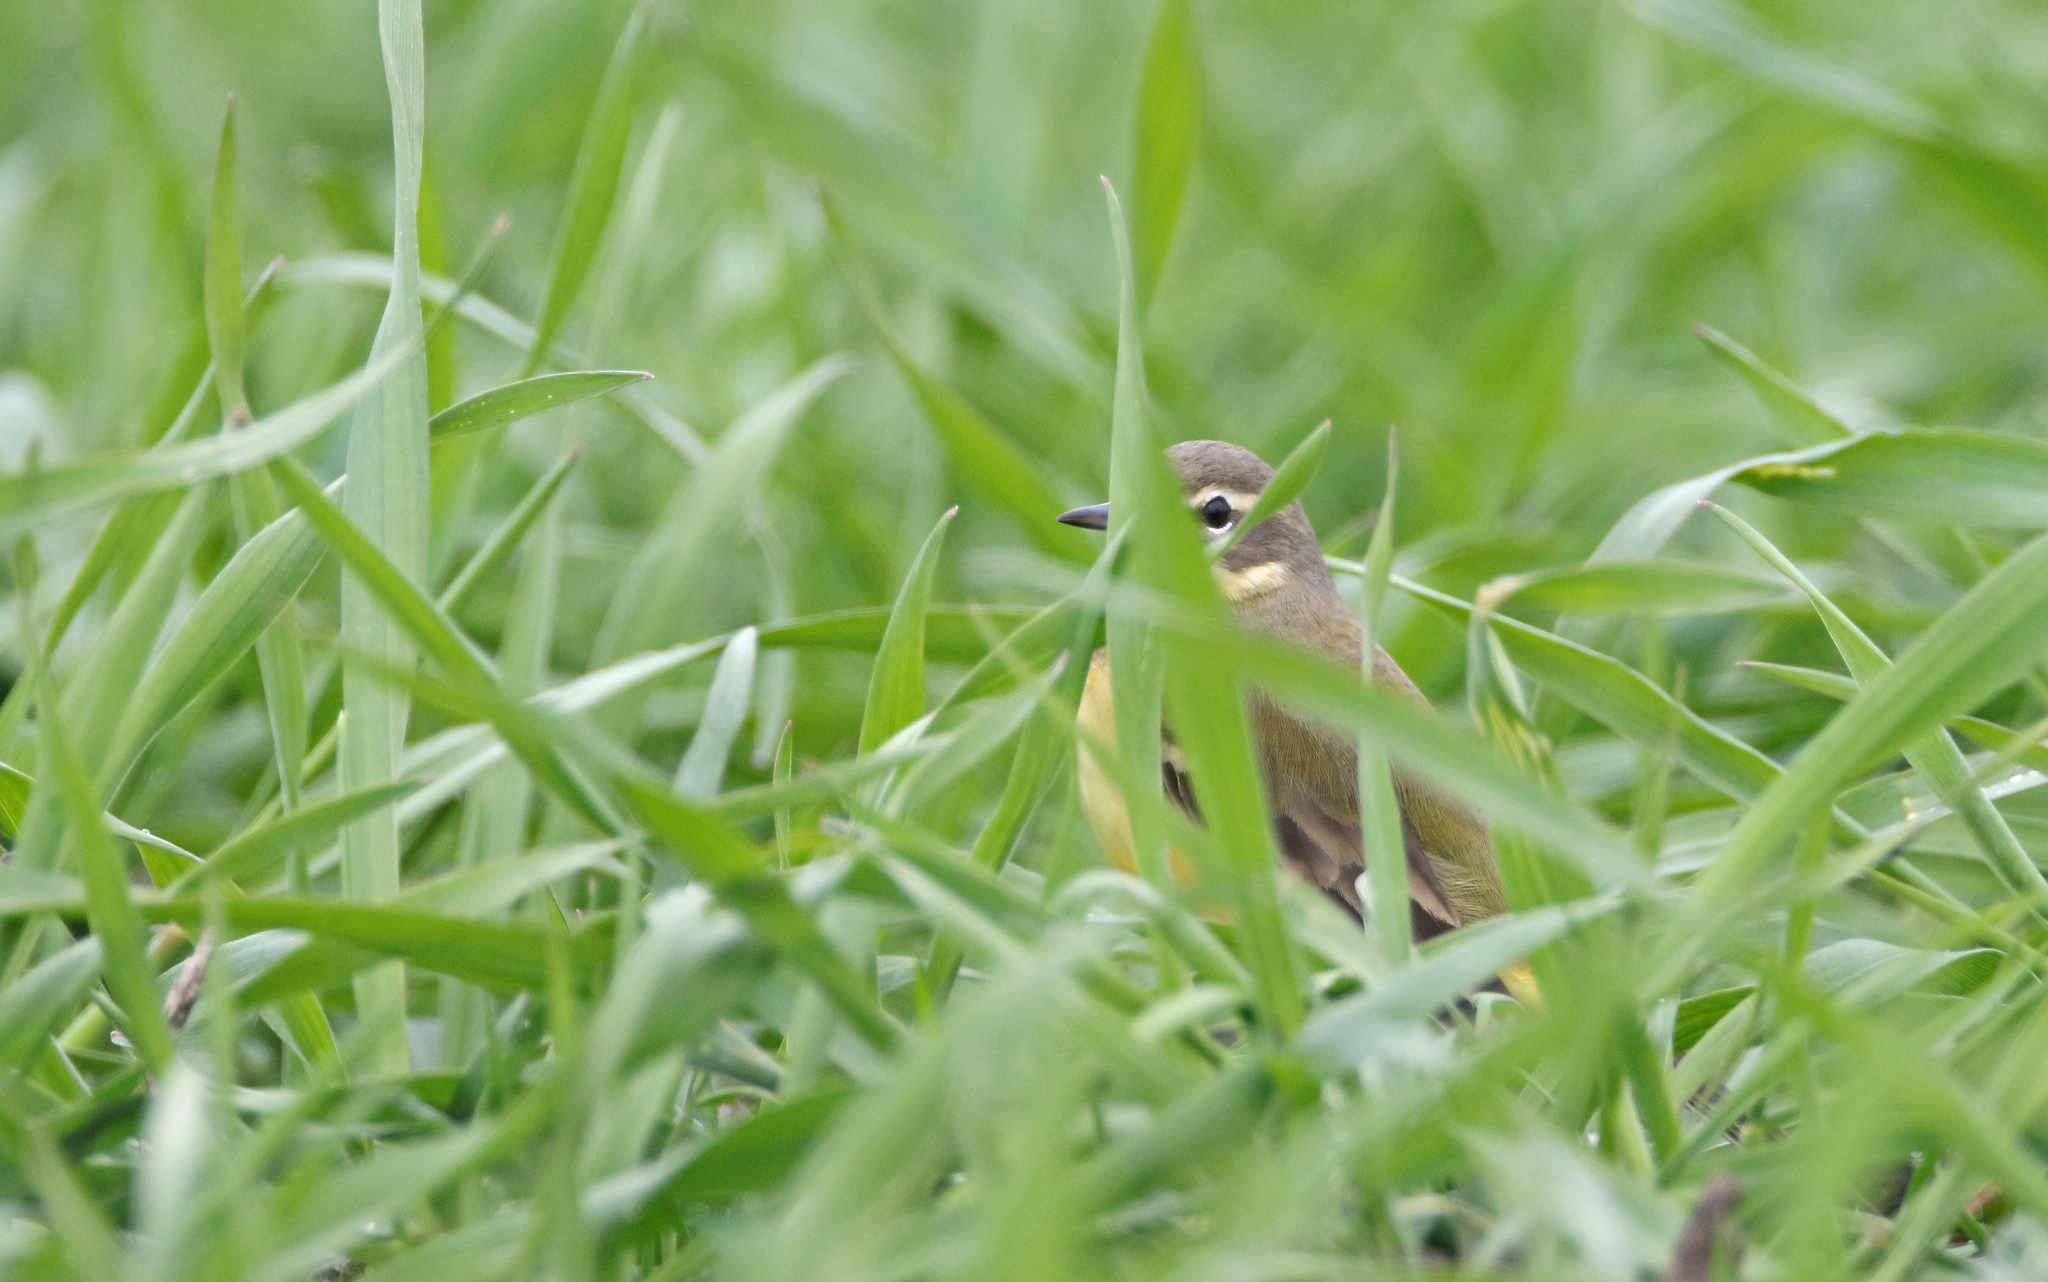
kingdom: Animalia
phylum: Chordata
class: Aves
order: Passeriformes
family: Motacillidae
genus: Motacilla
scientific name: Motacilla flava
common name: Western yellow wagtail
